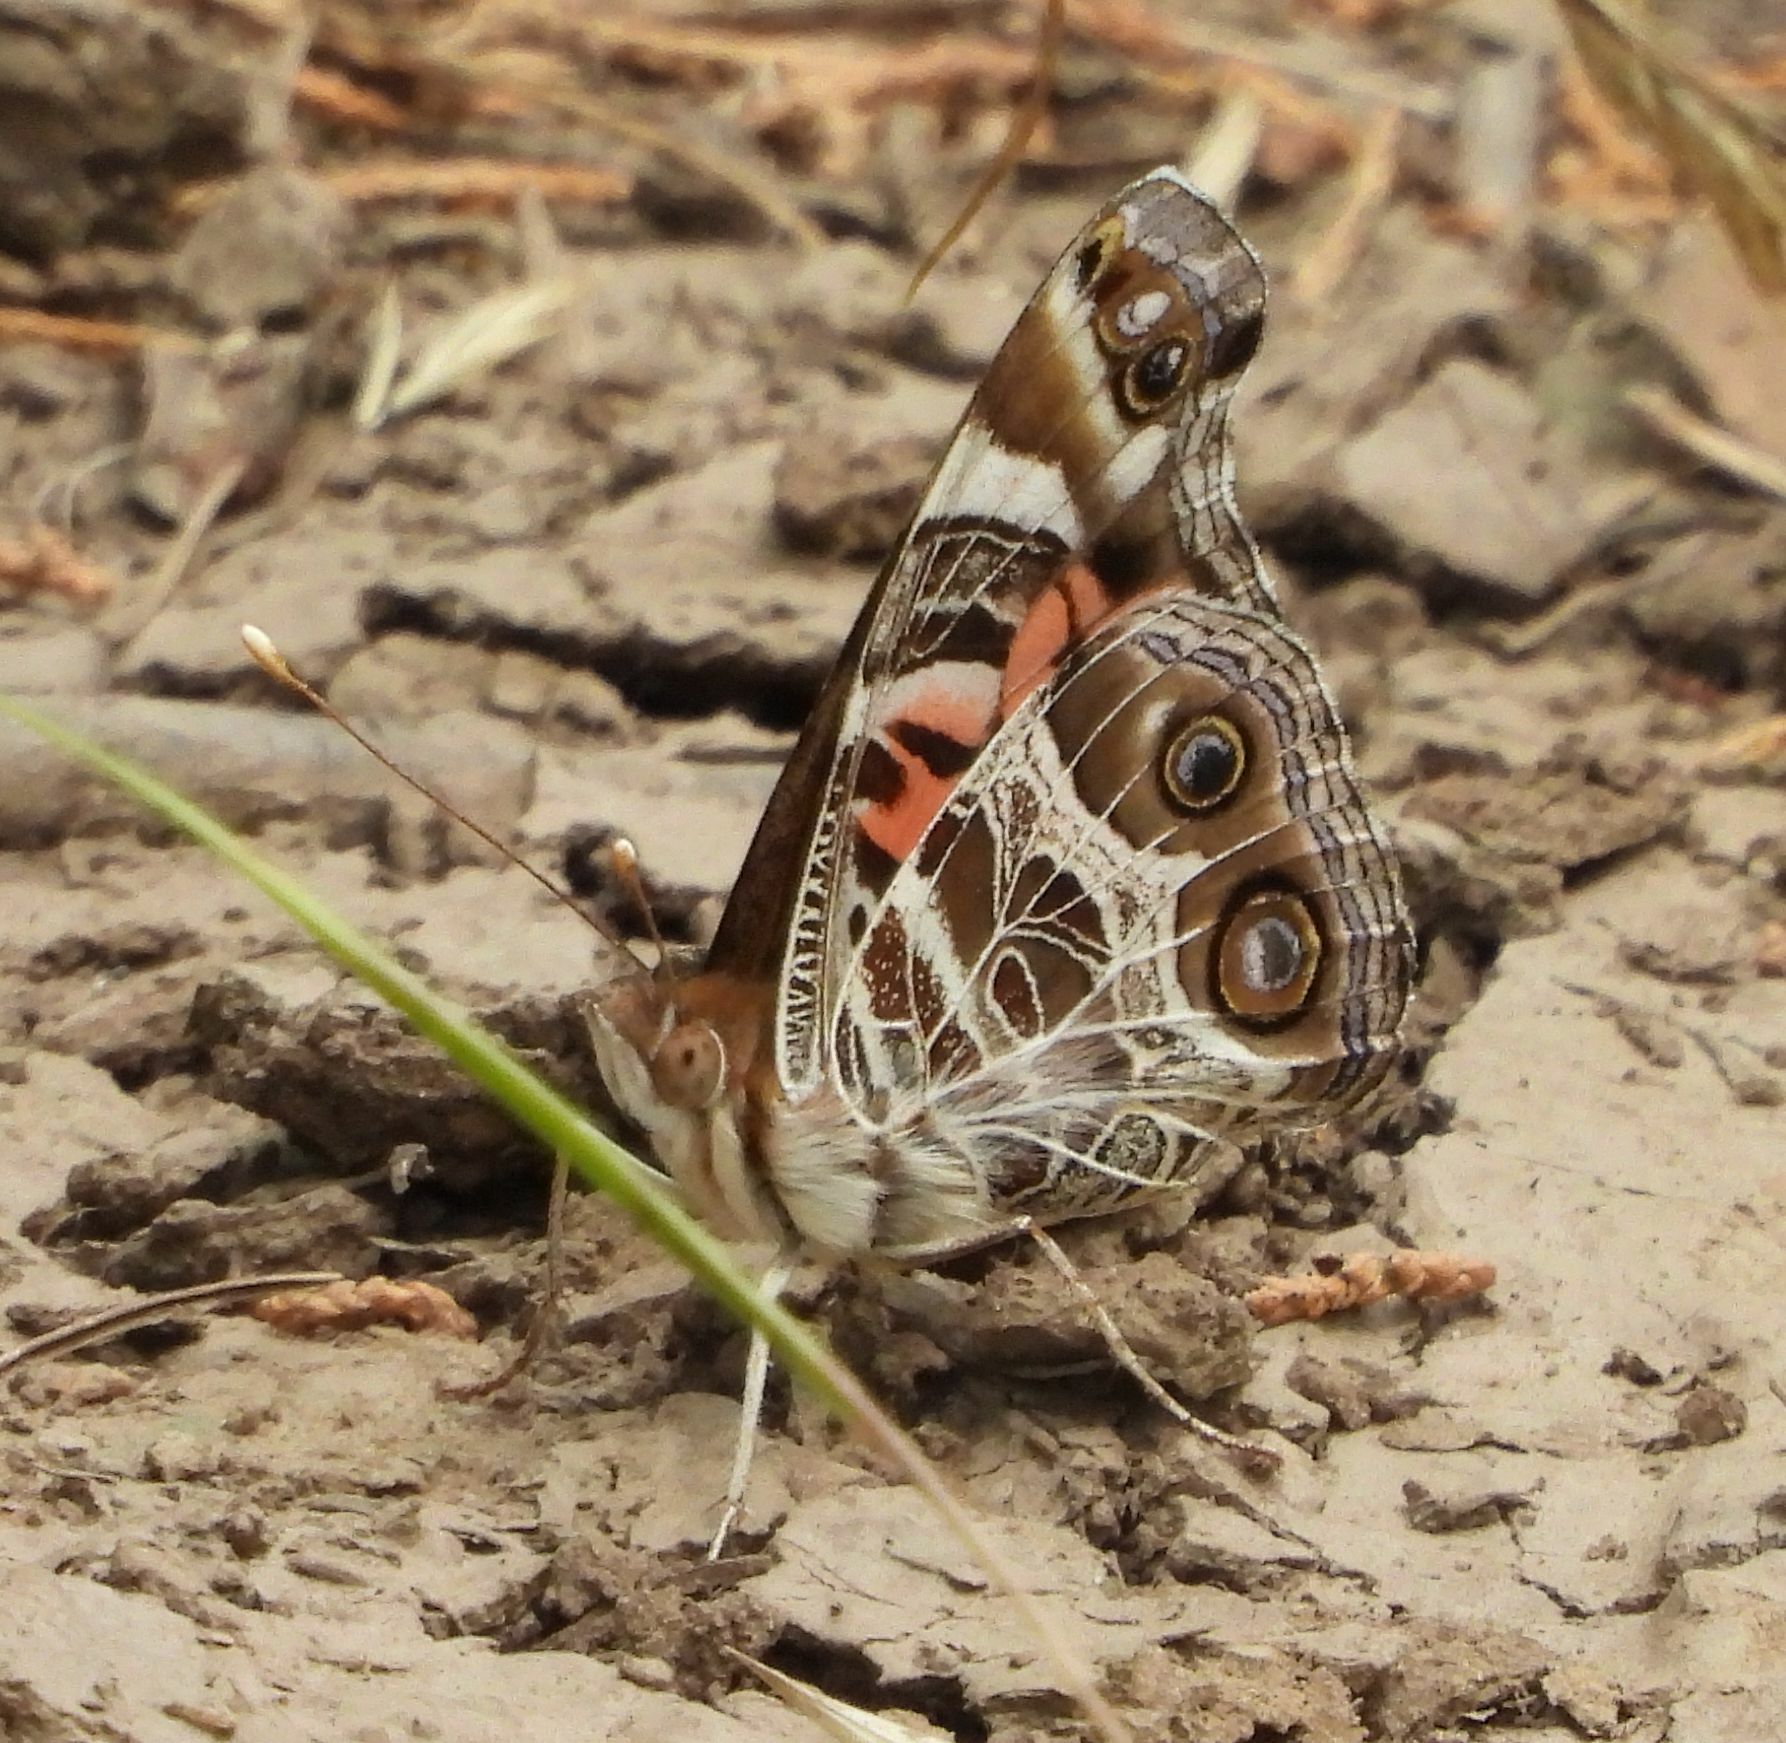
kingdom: Animalia
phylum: Arthropoda
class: Insecta
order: Lepidoptera
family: Nymphalidae
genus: Vanessa
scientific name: Vanessa virginiensis
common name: American lady
